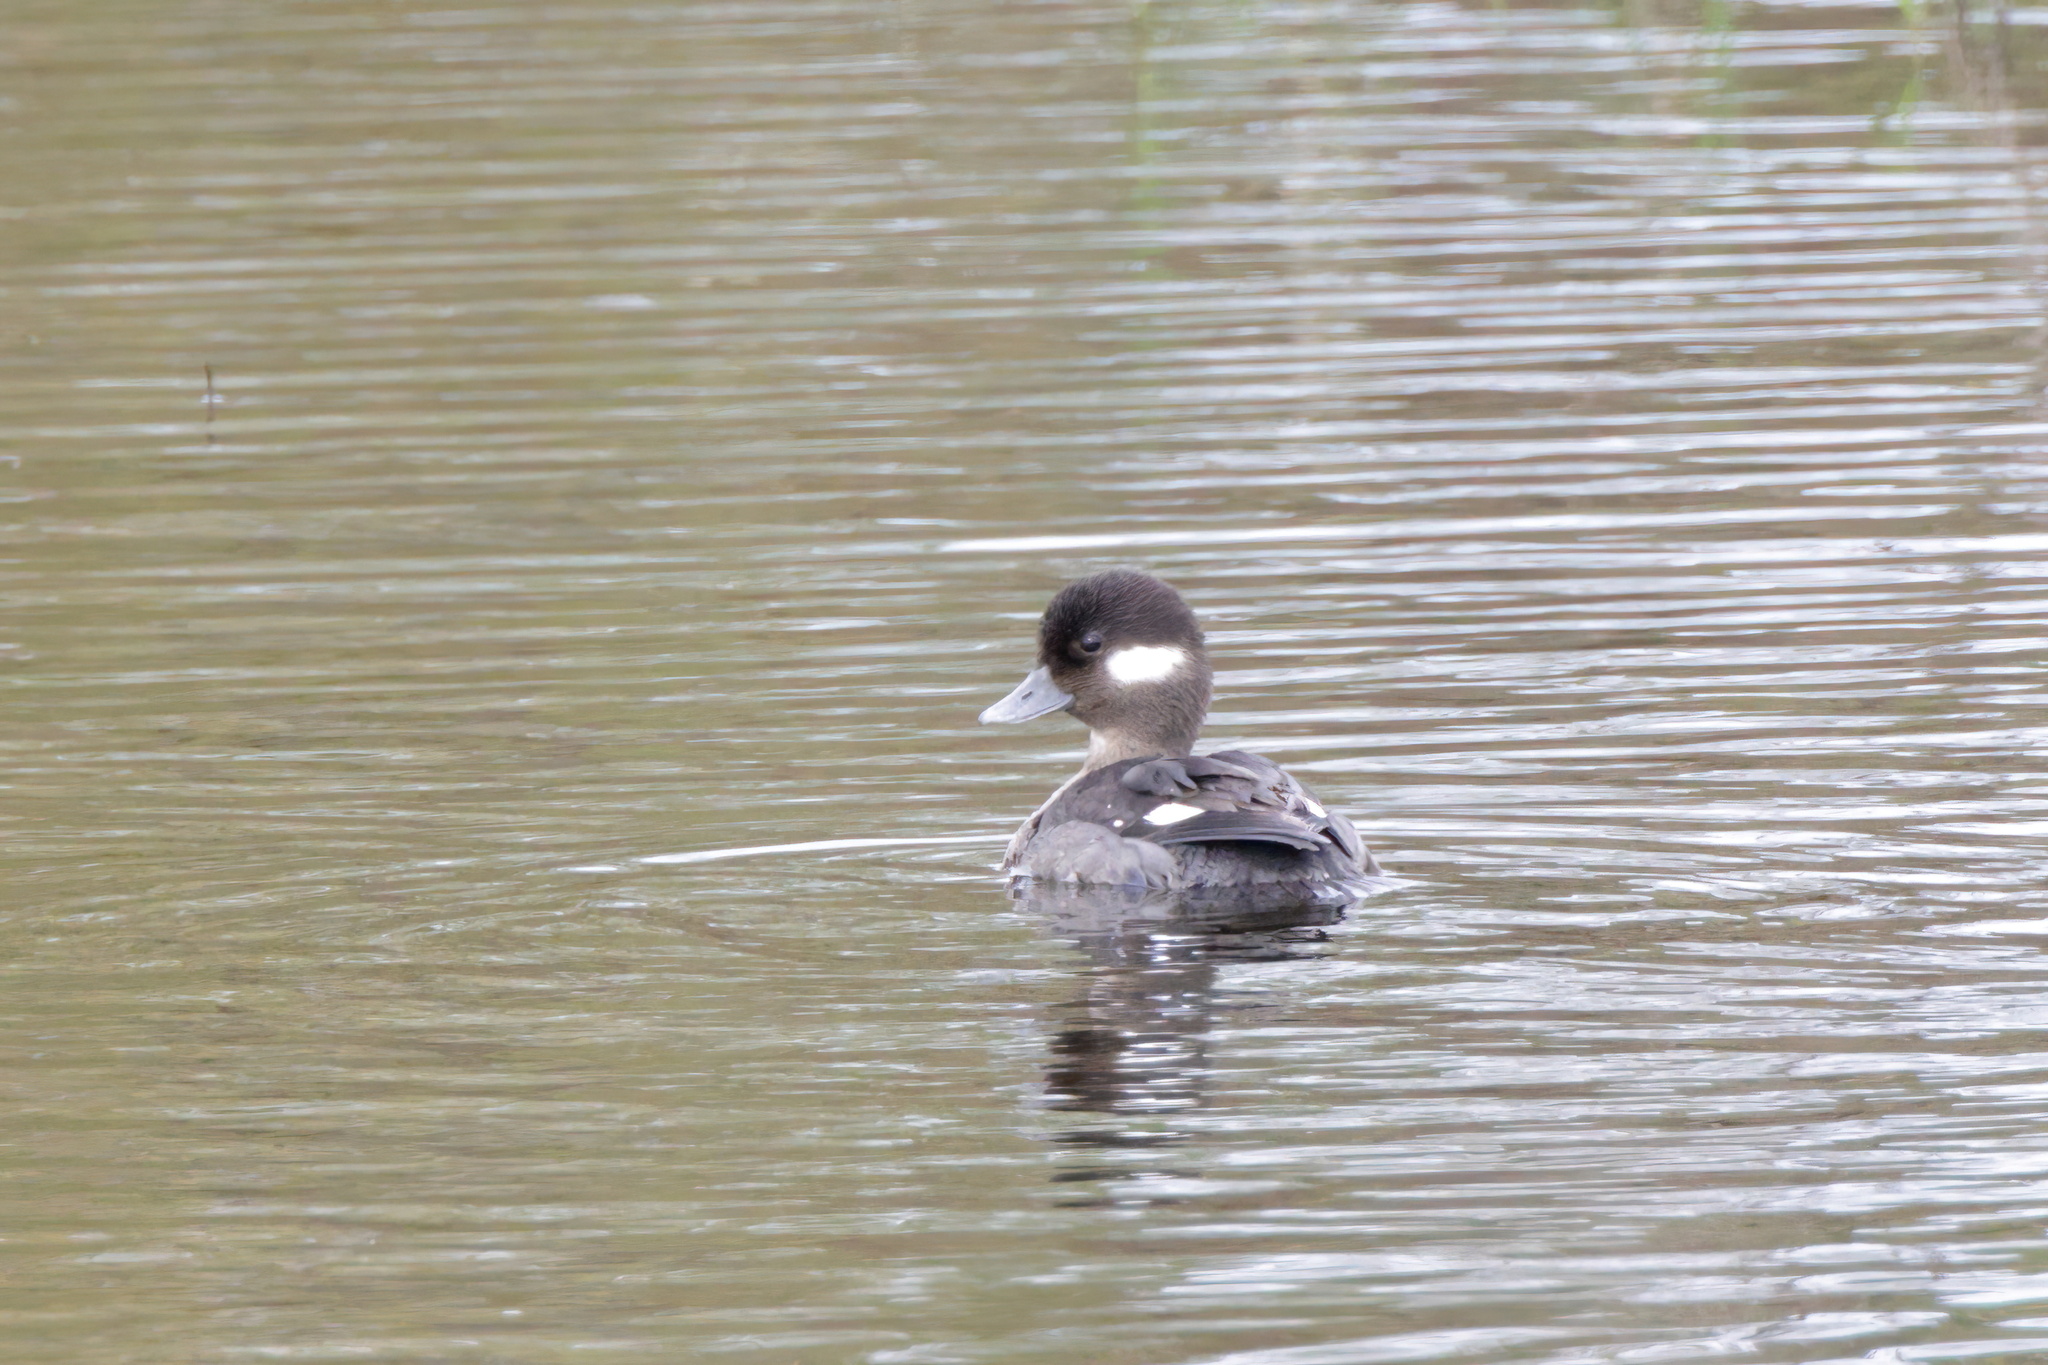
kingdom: Animalia
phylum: Chordata
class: Aves
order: Anseriformes
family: Anatidae
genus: Bucephala
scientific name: Bucephala albeola
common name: Bufflehead
